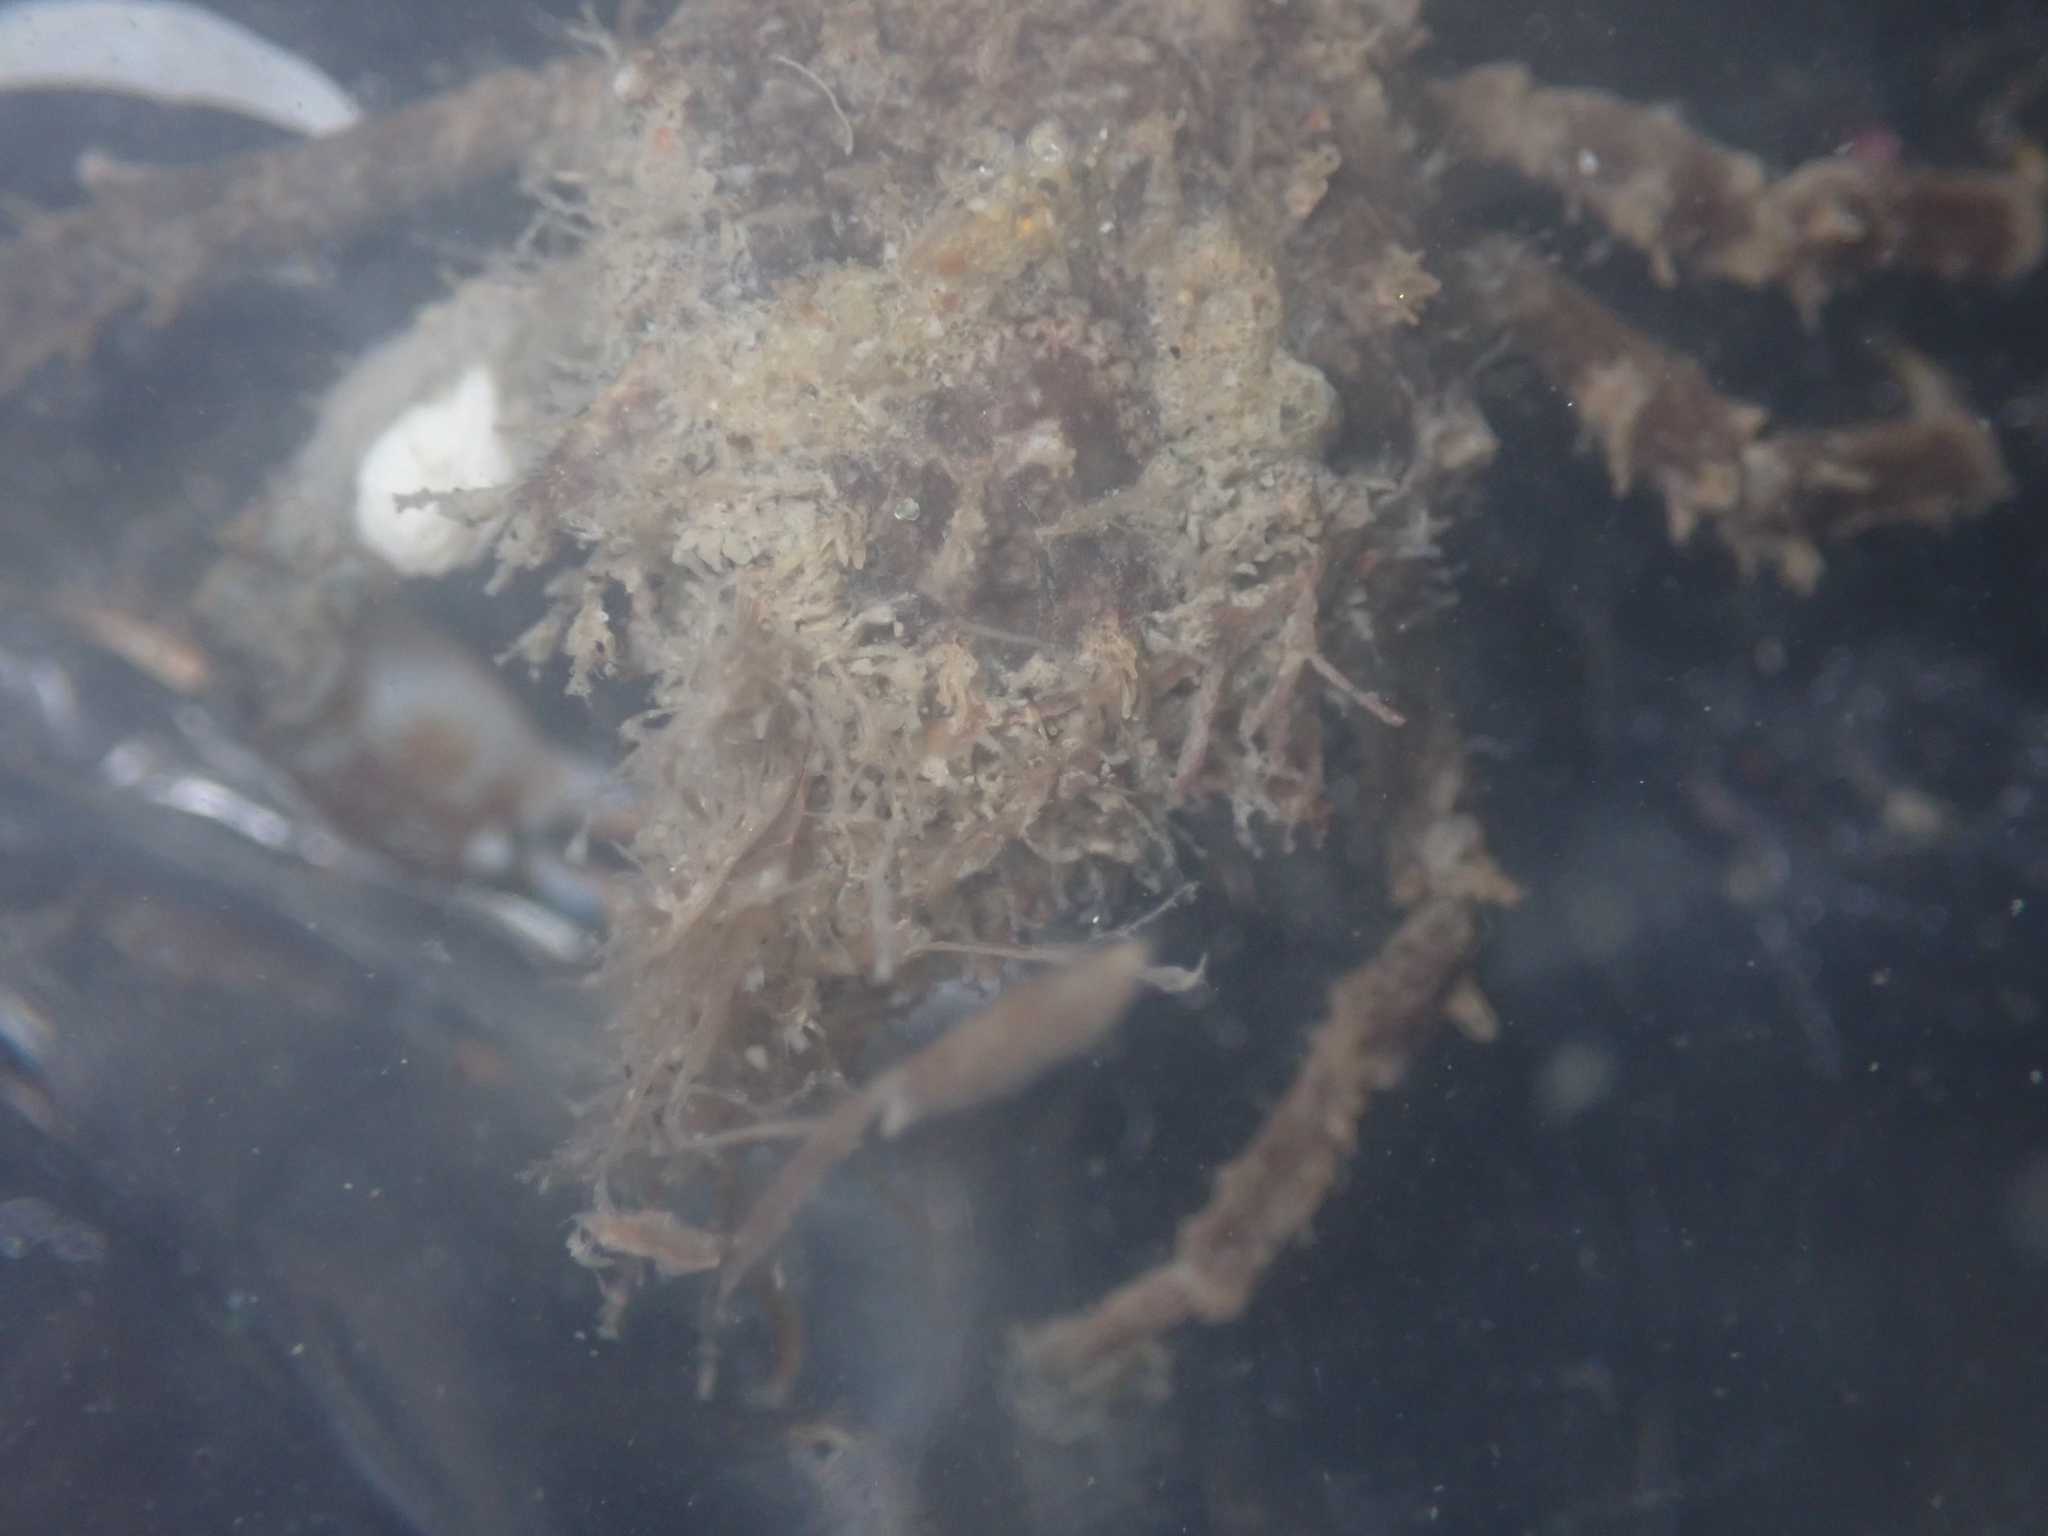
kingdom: Animalia
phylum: Arthropoda
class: Malacostraca
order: Decapoda
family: Epialtidae
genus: Pugettia
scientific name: Pugettia gracilis
